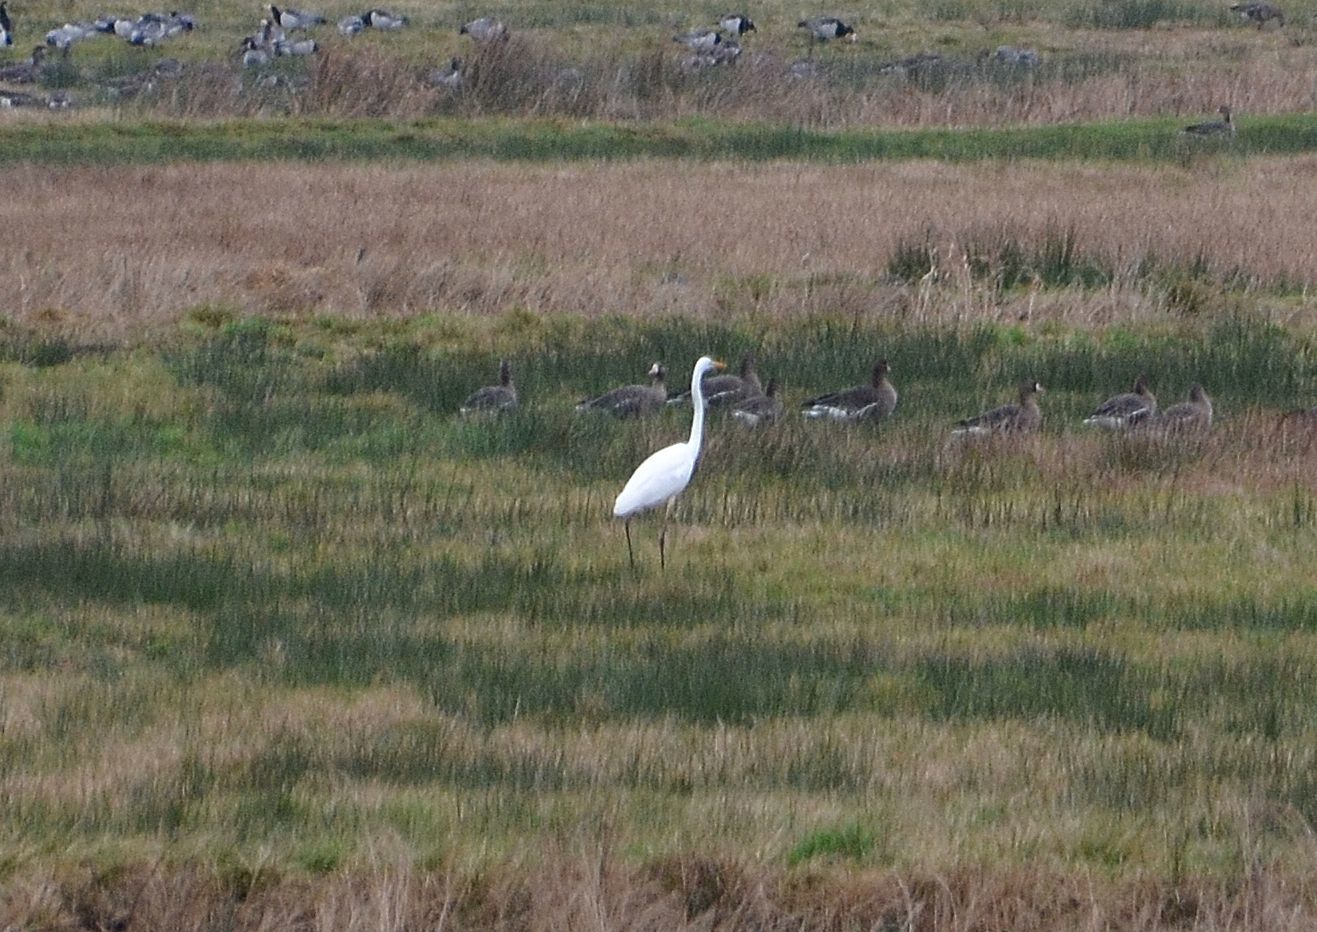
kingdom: Animalia
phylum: Chordata
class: Aves
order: Pelecaniformes
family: Ardeidae
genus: Ardea
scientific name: Ardea alba
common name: Great egret
